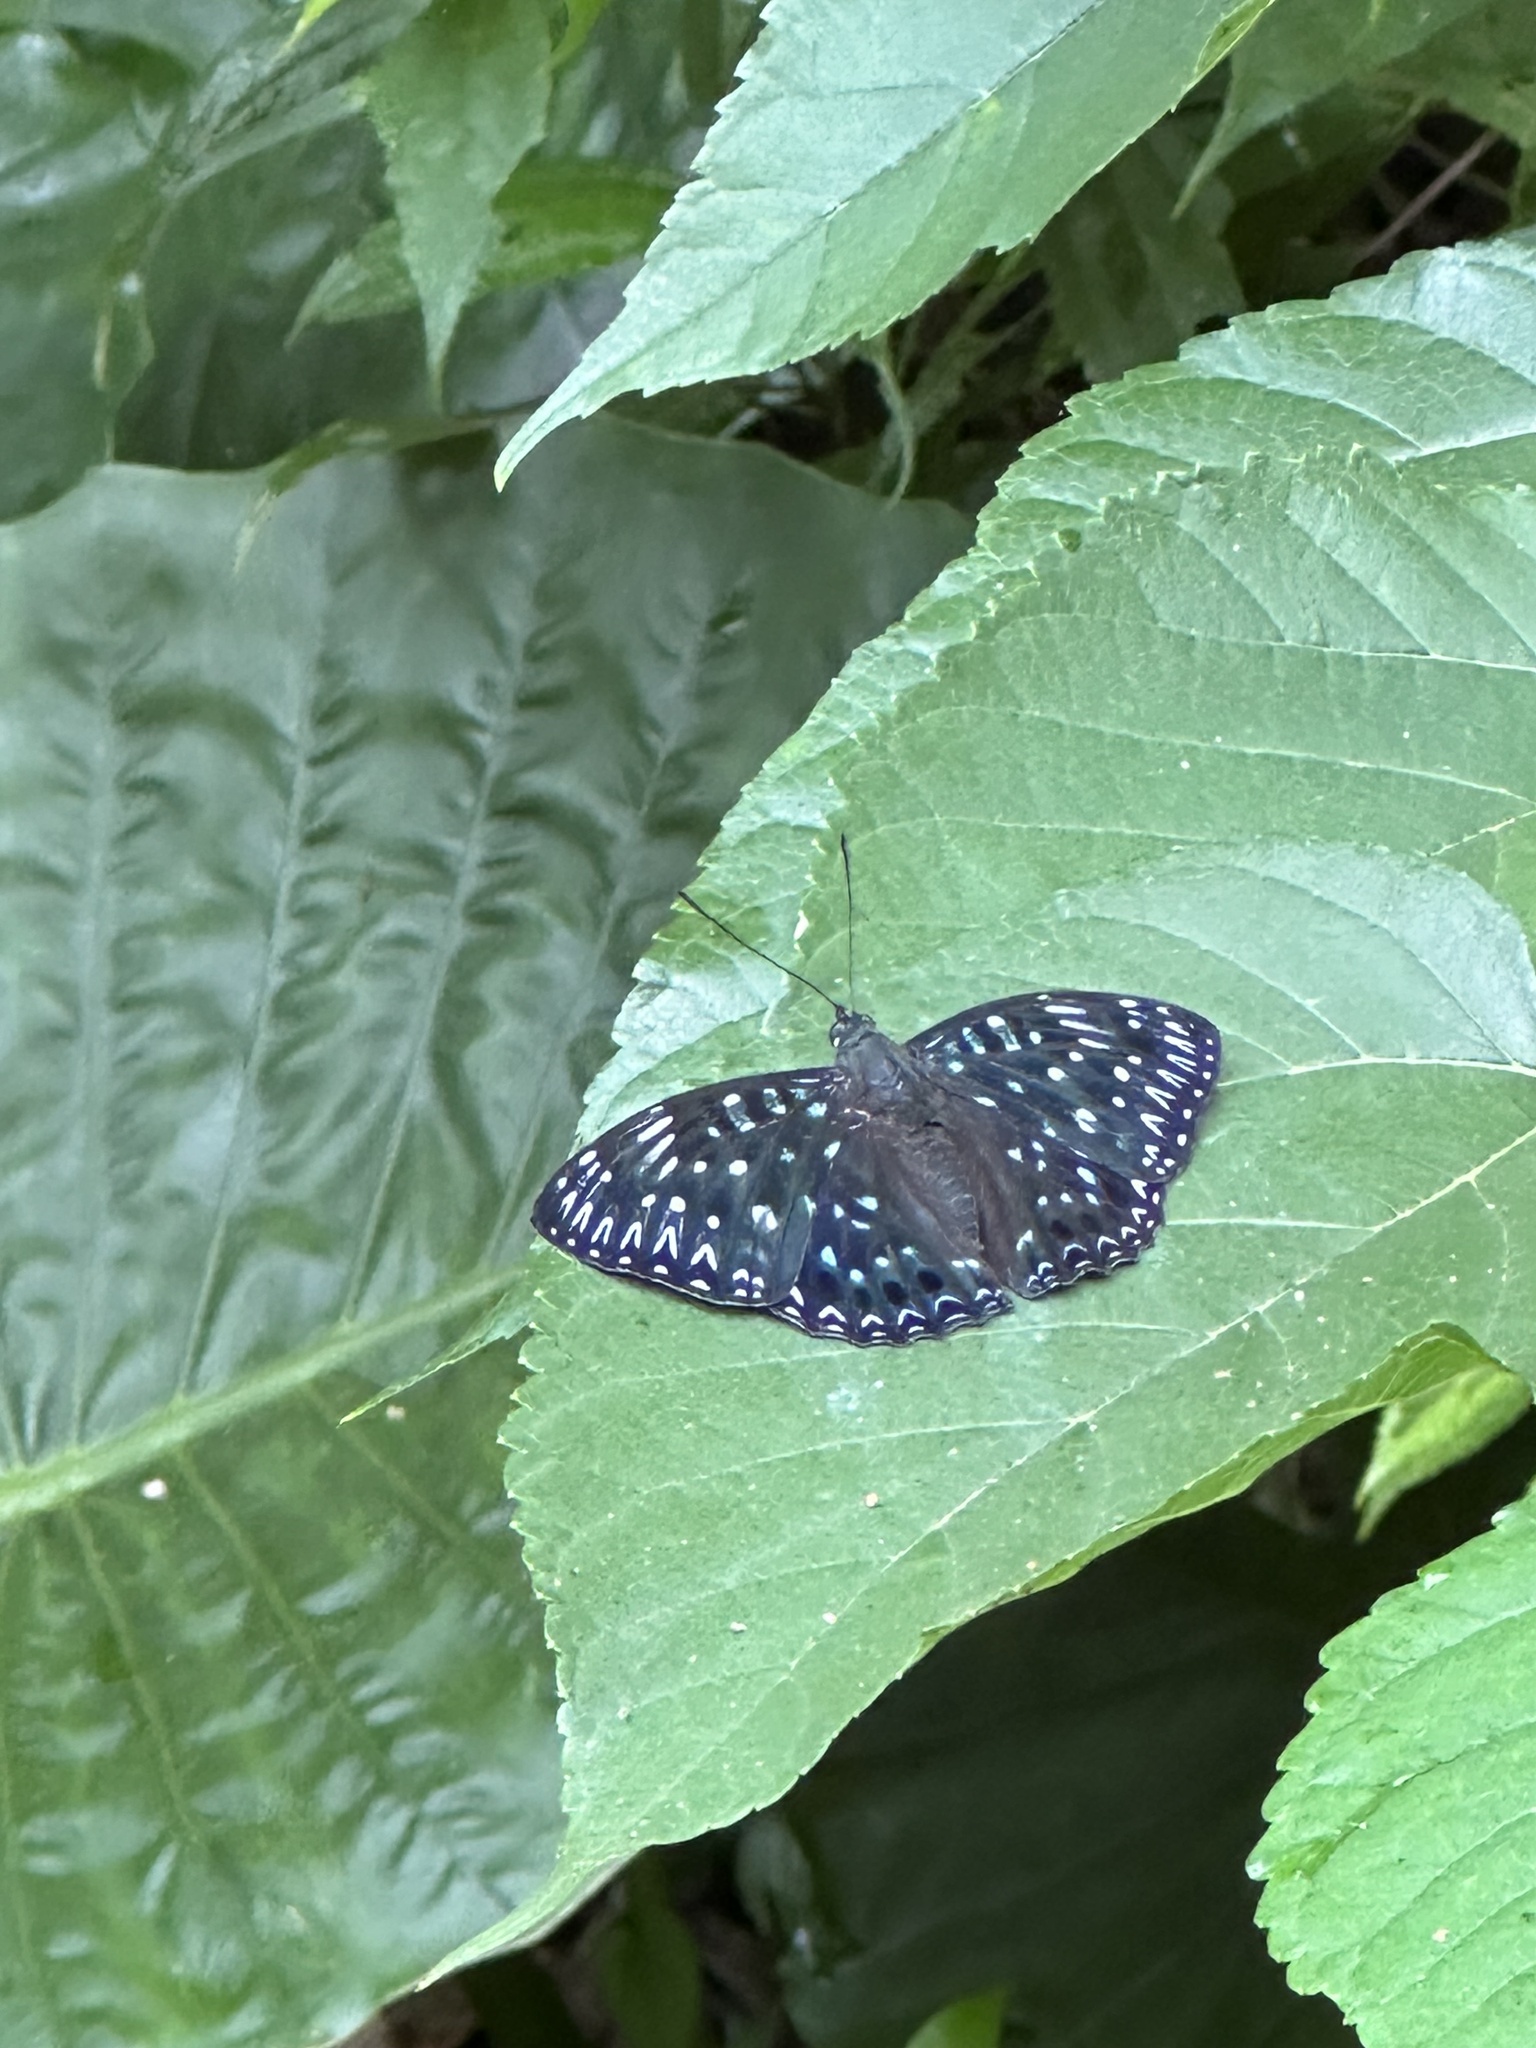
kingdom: Animalia
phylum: Arthropoda
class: Insecta
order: Lepidoptera
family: Nymphalidae
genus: Dichorragia
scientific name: Dichorragia nesimachus
